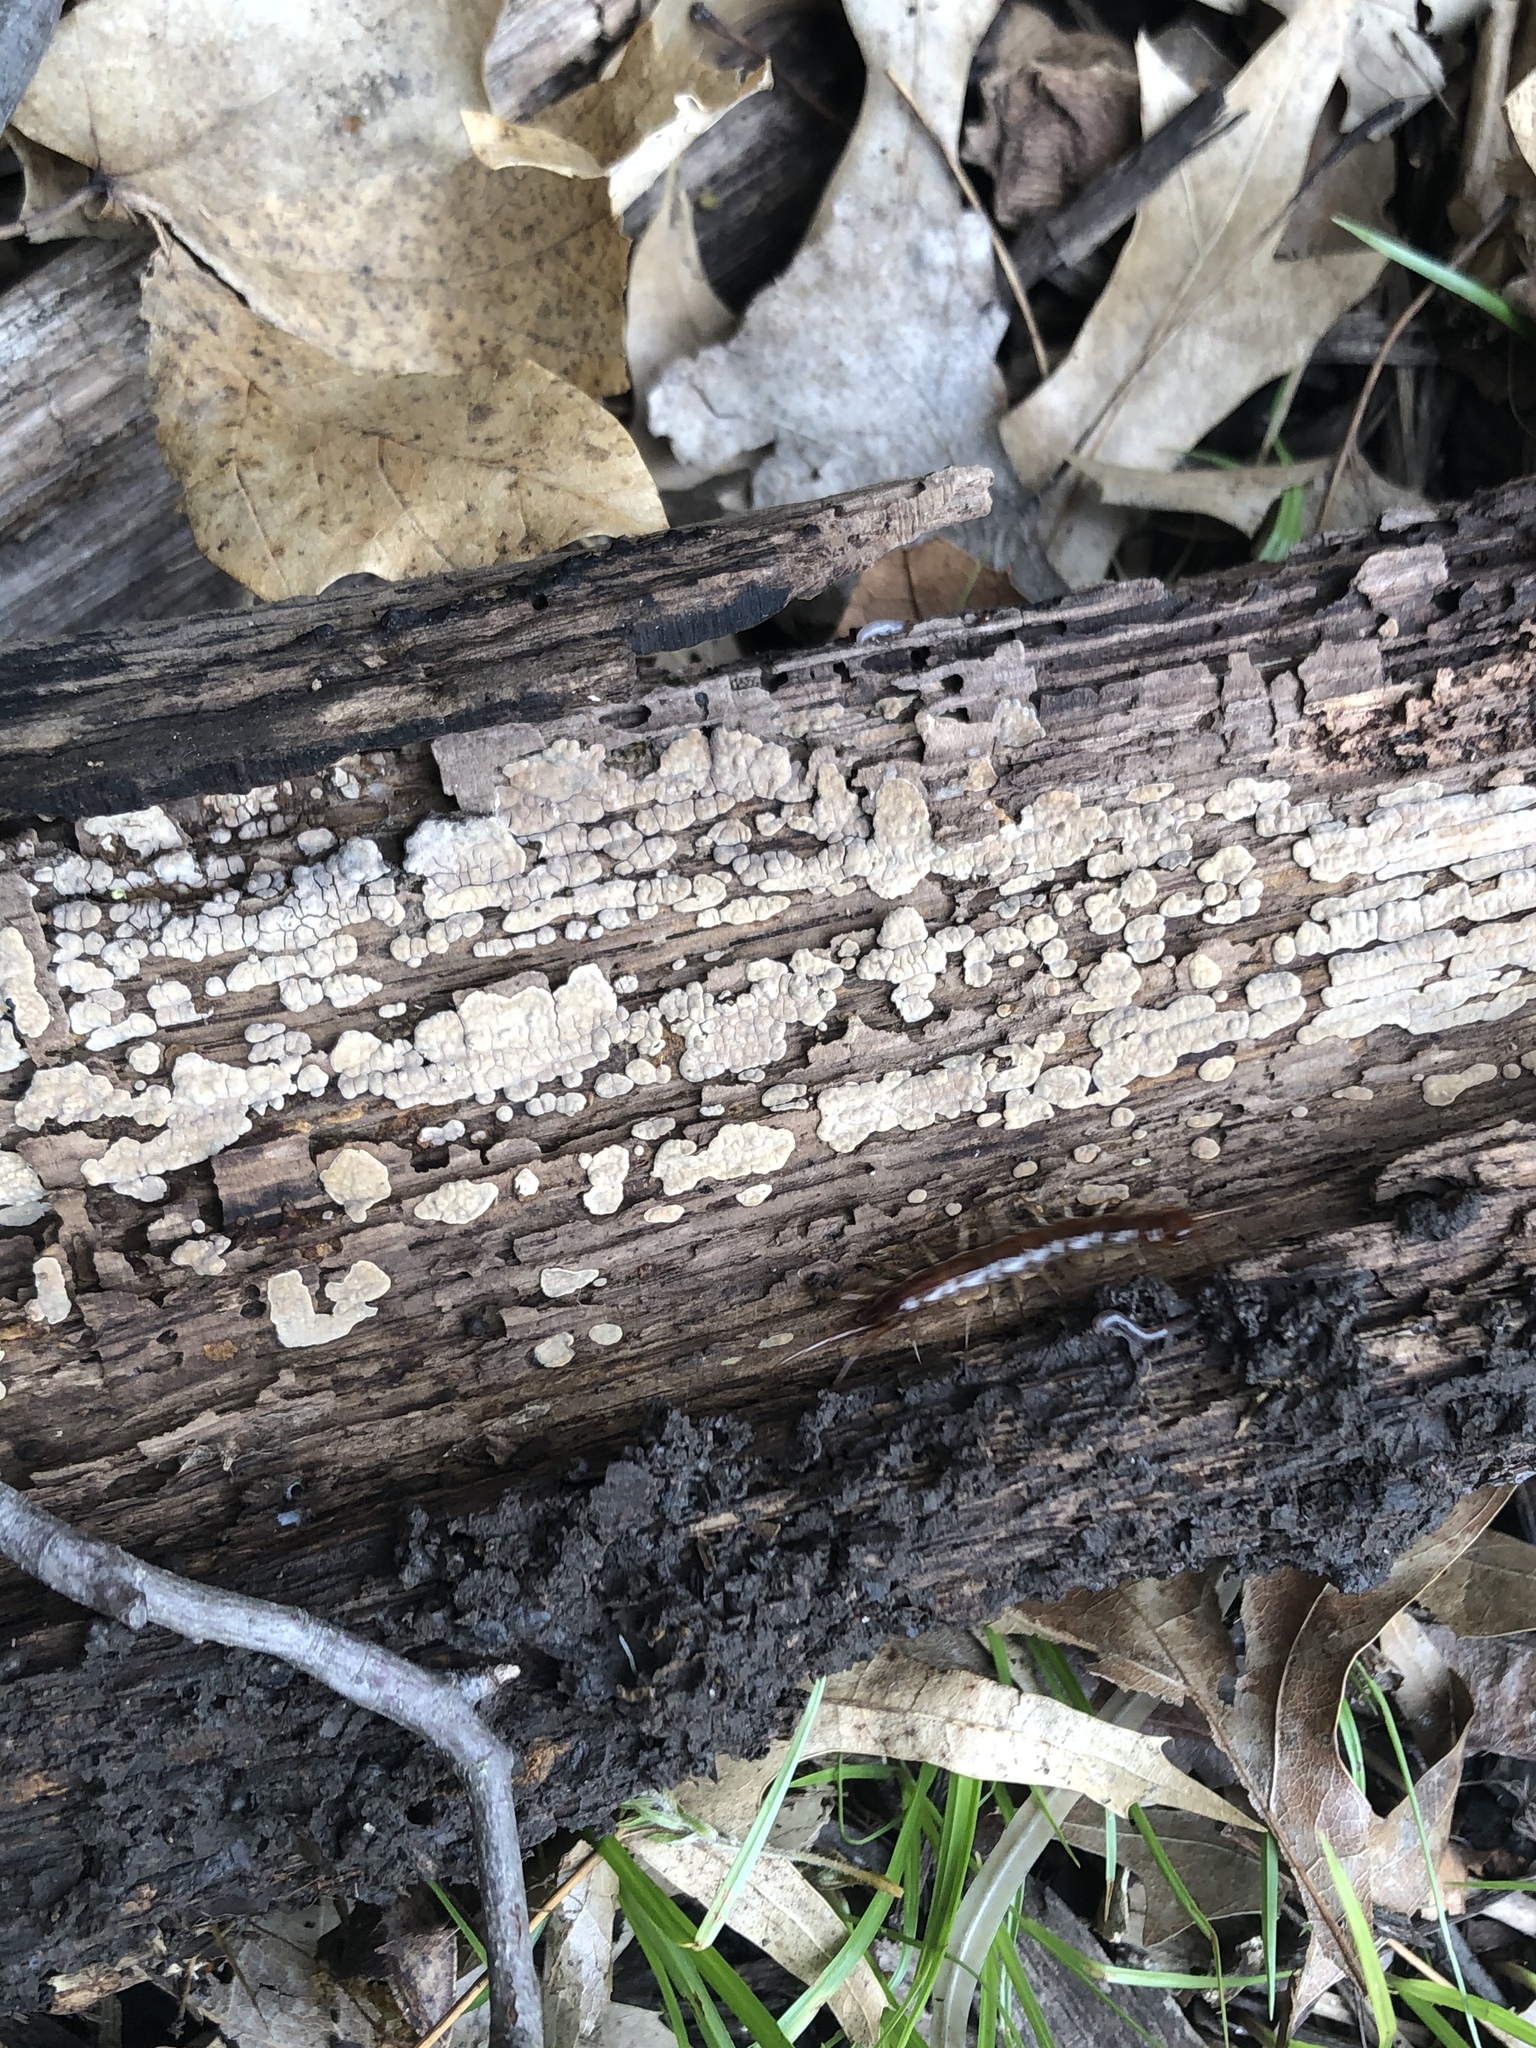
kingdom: Fungi
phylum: Basidiomycota
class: Agaricomycetes
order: Russulales
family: Stereaceae
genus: Xylobolus
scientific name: Xylobolus frustulatus
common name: Ceramic parchment
